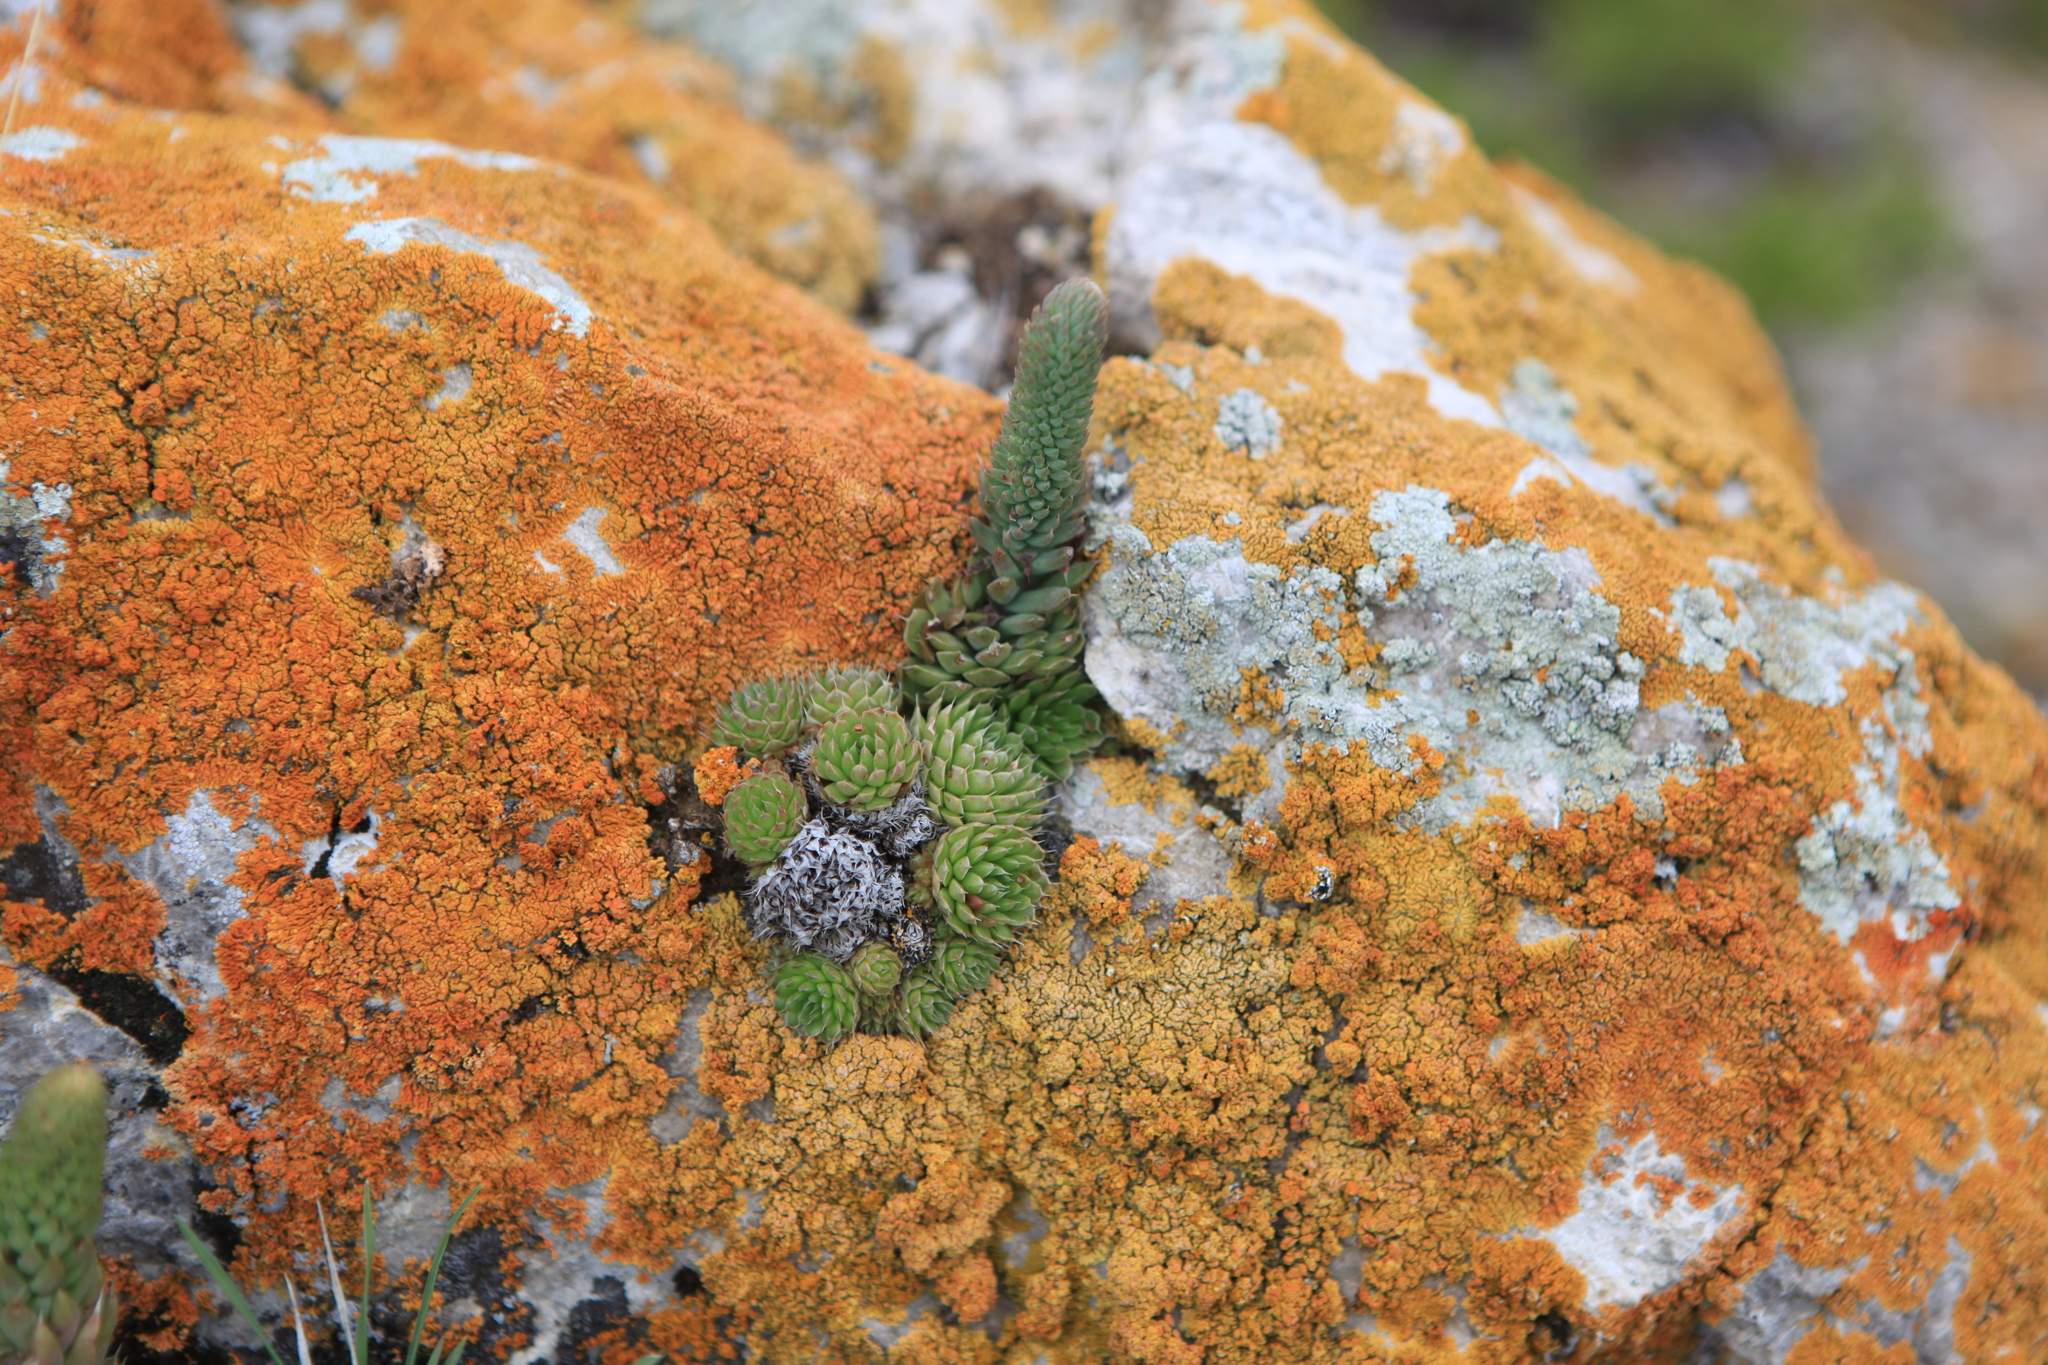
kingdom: Plantae
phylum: Tracheophyta
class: Magnoliopsida
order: Saxifragales
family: Crassulaceae
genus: Orostachys
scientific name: Orostachys spinosa
